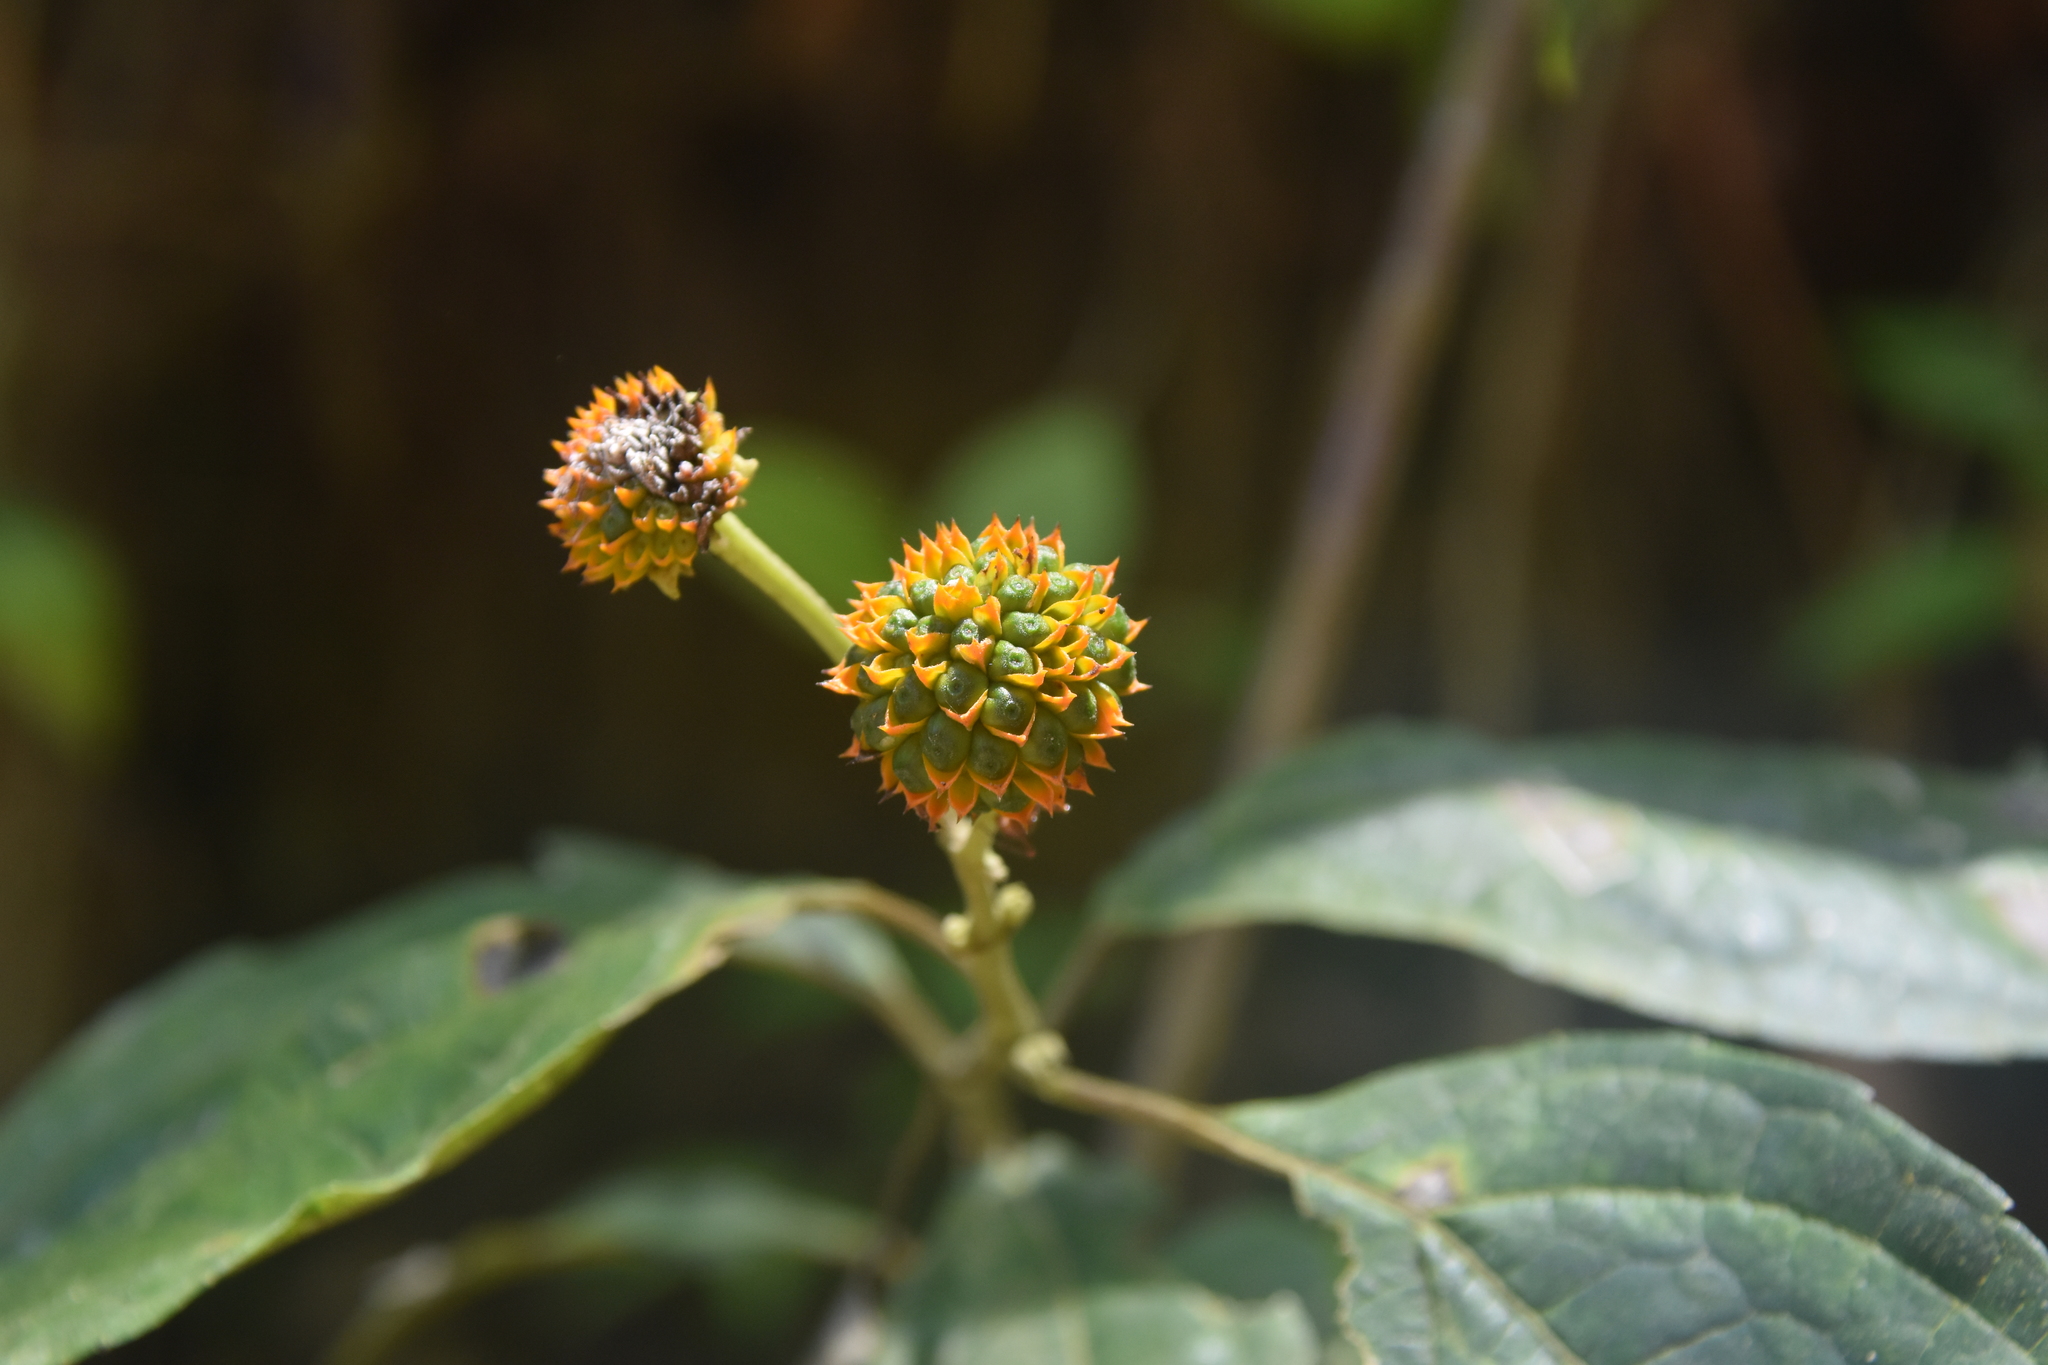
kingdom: Plantae
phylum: Tracheophyta
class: Magnoliopsida
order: Asterales
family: Asteraceae
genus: Tilesia
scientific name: Tilesia baccata
